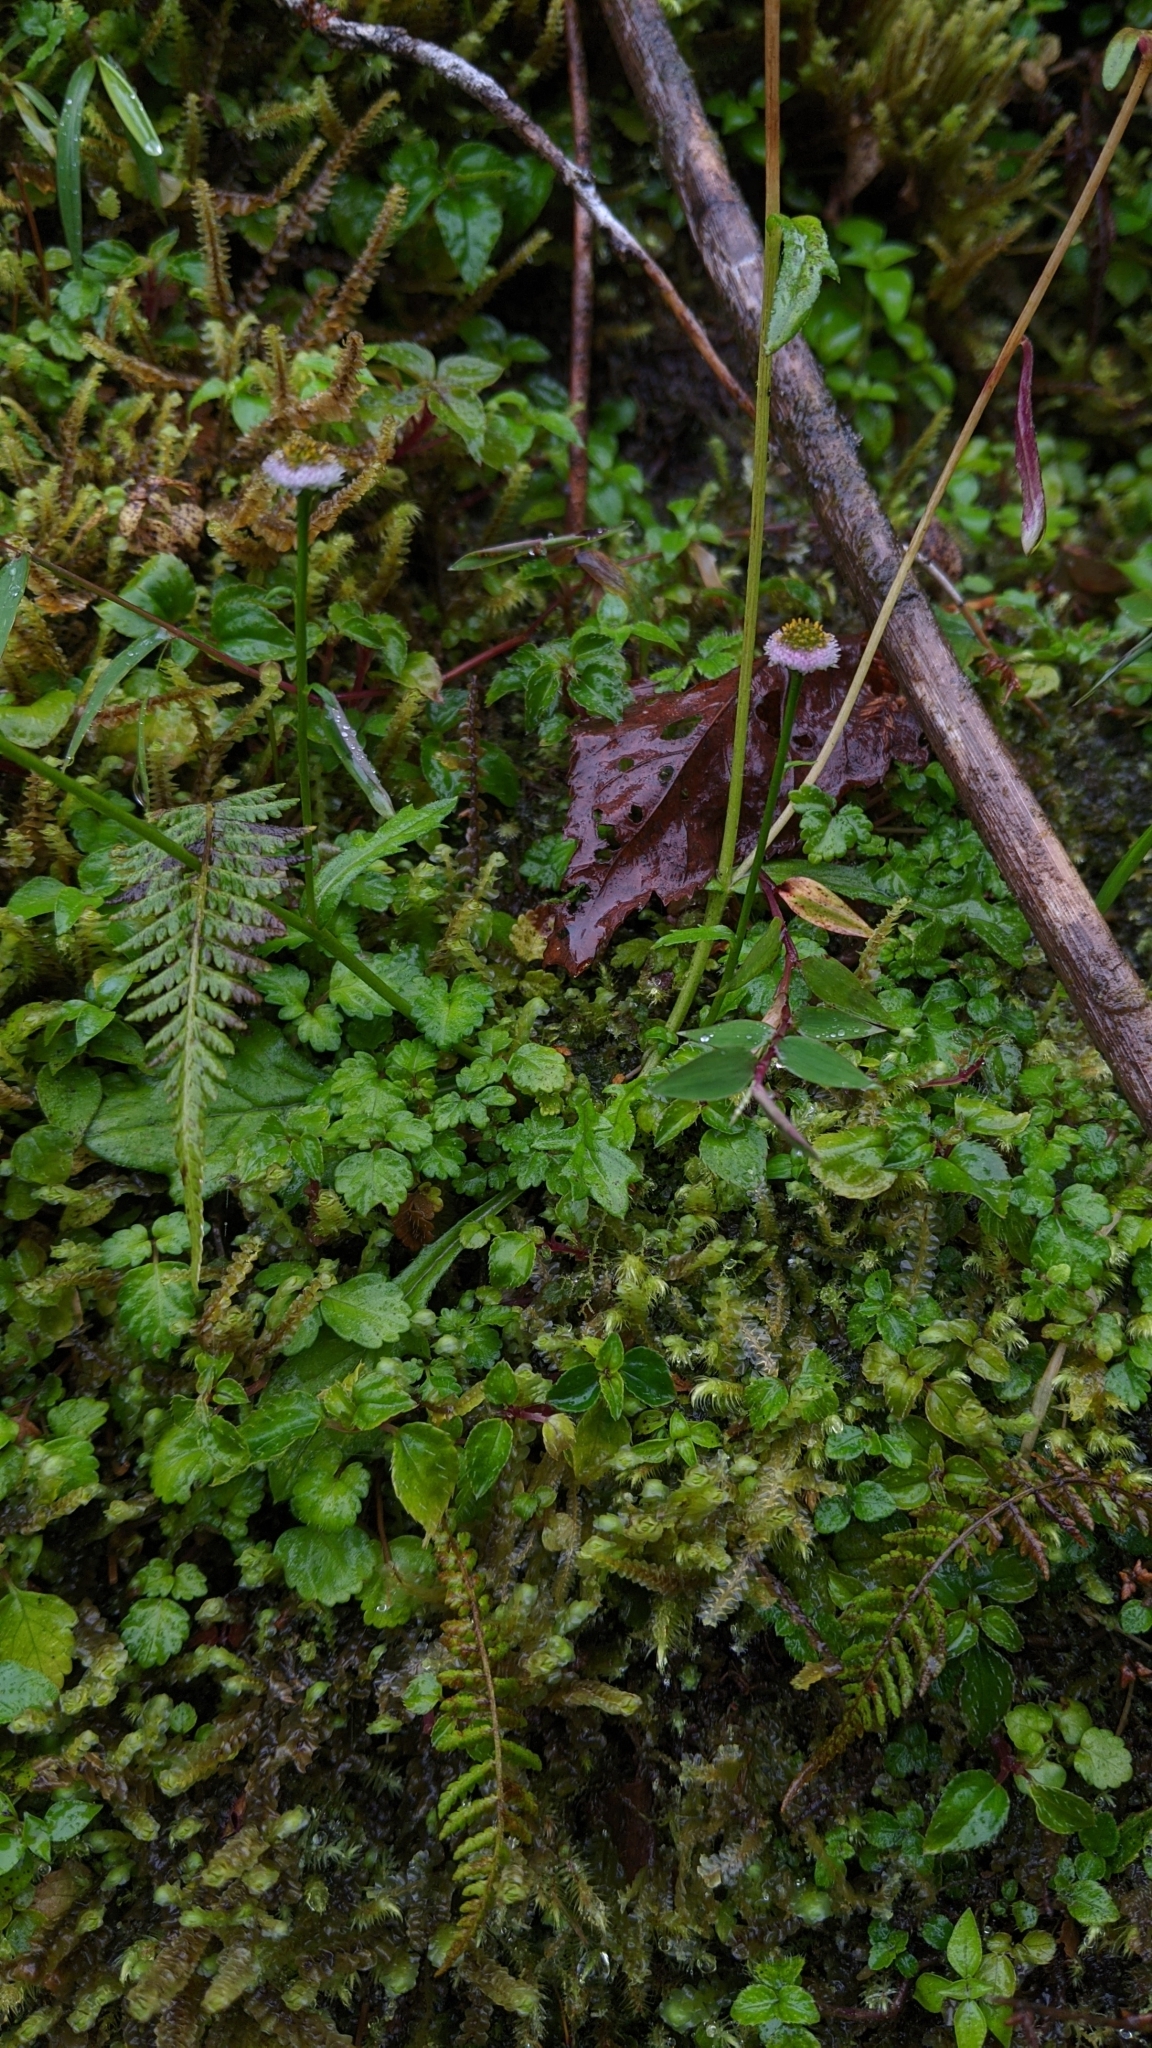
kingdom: Plantae
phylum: Tracheophyta
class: Magnoliopsida
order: Asterales
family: Asteraceae
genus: Myriactis
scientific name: Myriactis humilis
